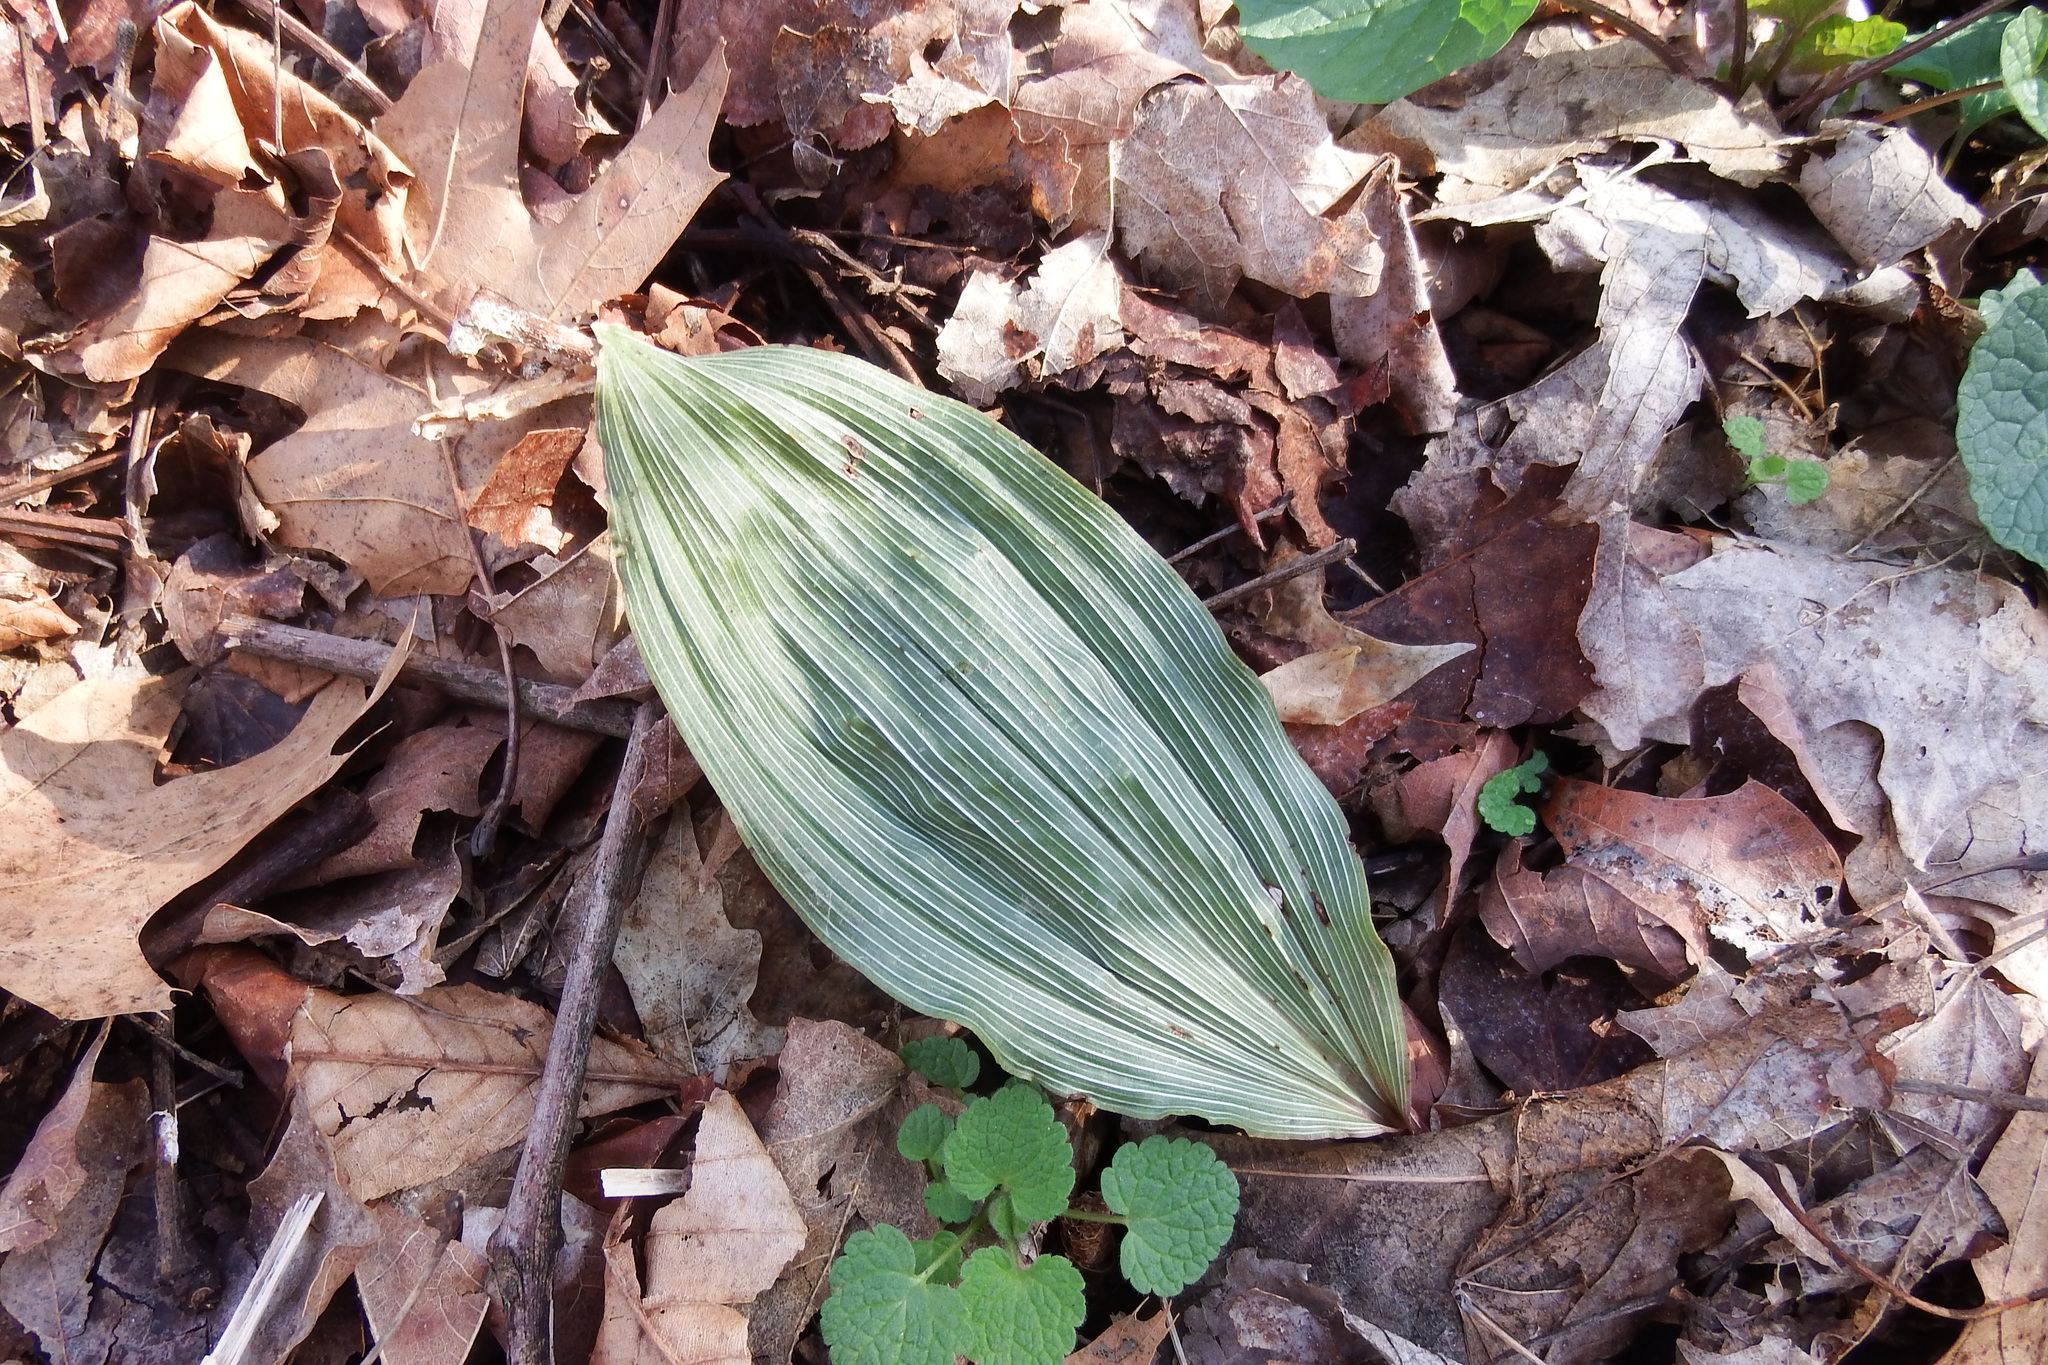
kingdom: Plantae
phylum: Tracheophyta
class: Liliopsida
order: Asparagales
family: Orchidaceae
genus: Aplectrum
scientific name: Aplectrum hyemale
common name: Adam-and-eve
